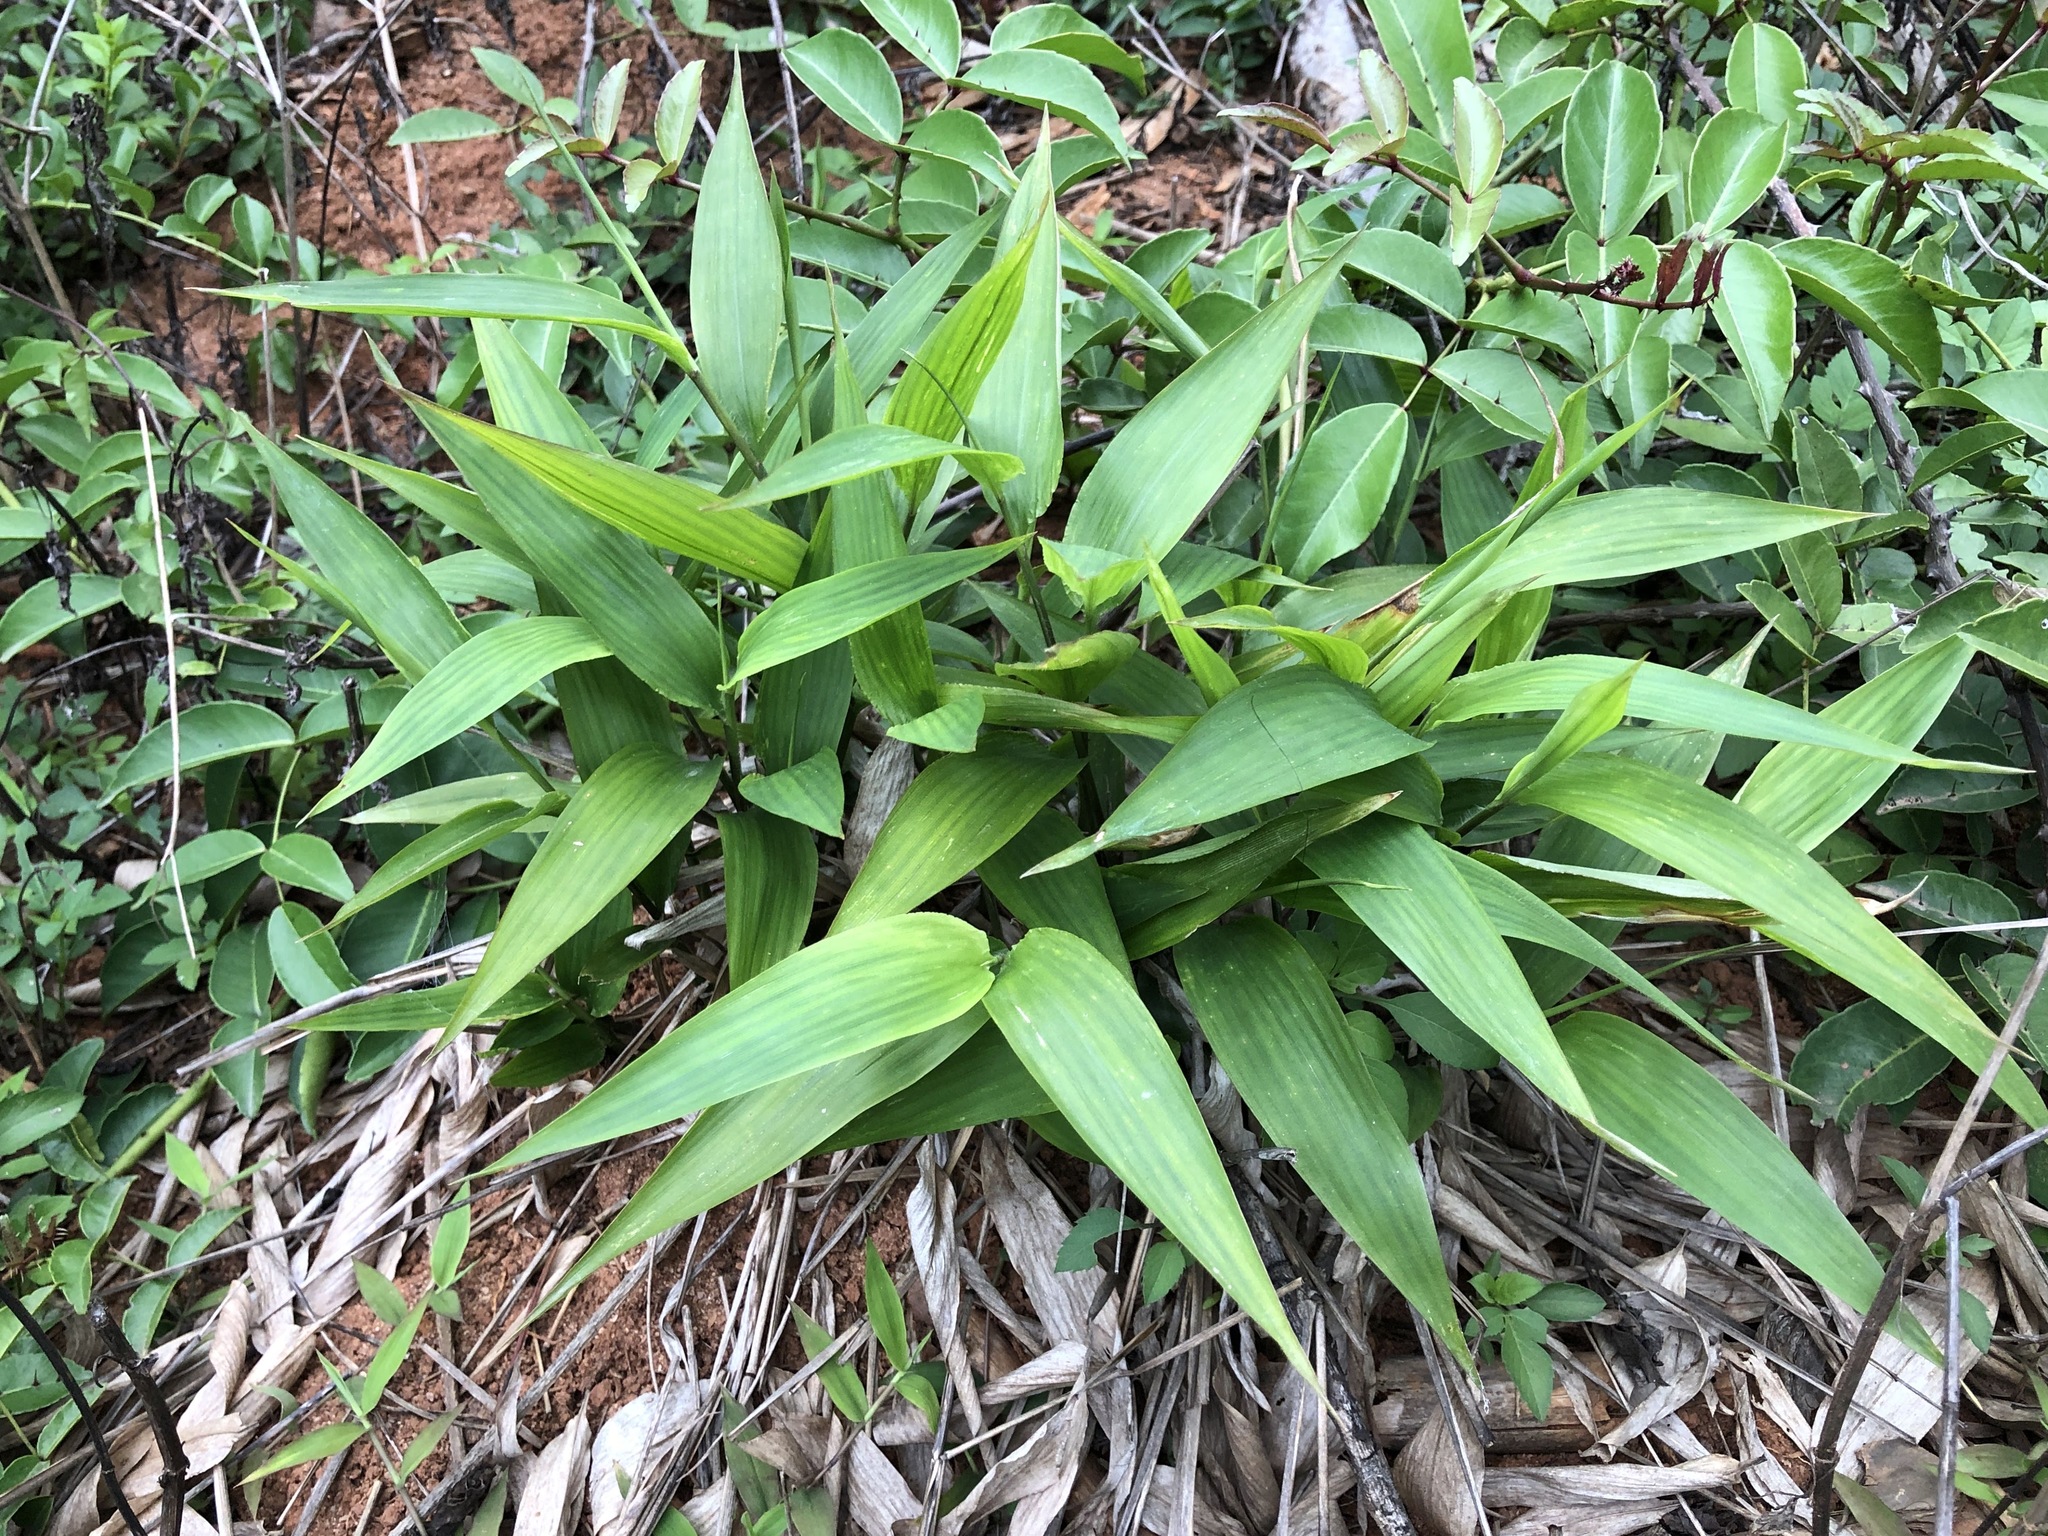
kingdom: Plantae
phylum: Tracheophyta
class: Liliopsida
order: Poales
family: Poaceae
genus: Lophatherum
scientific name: Lophatherum gracile
